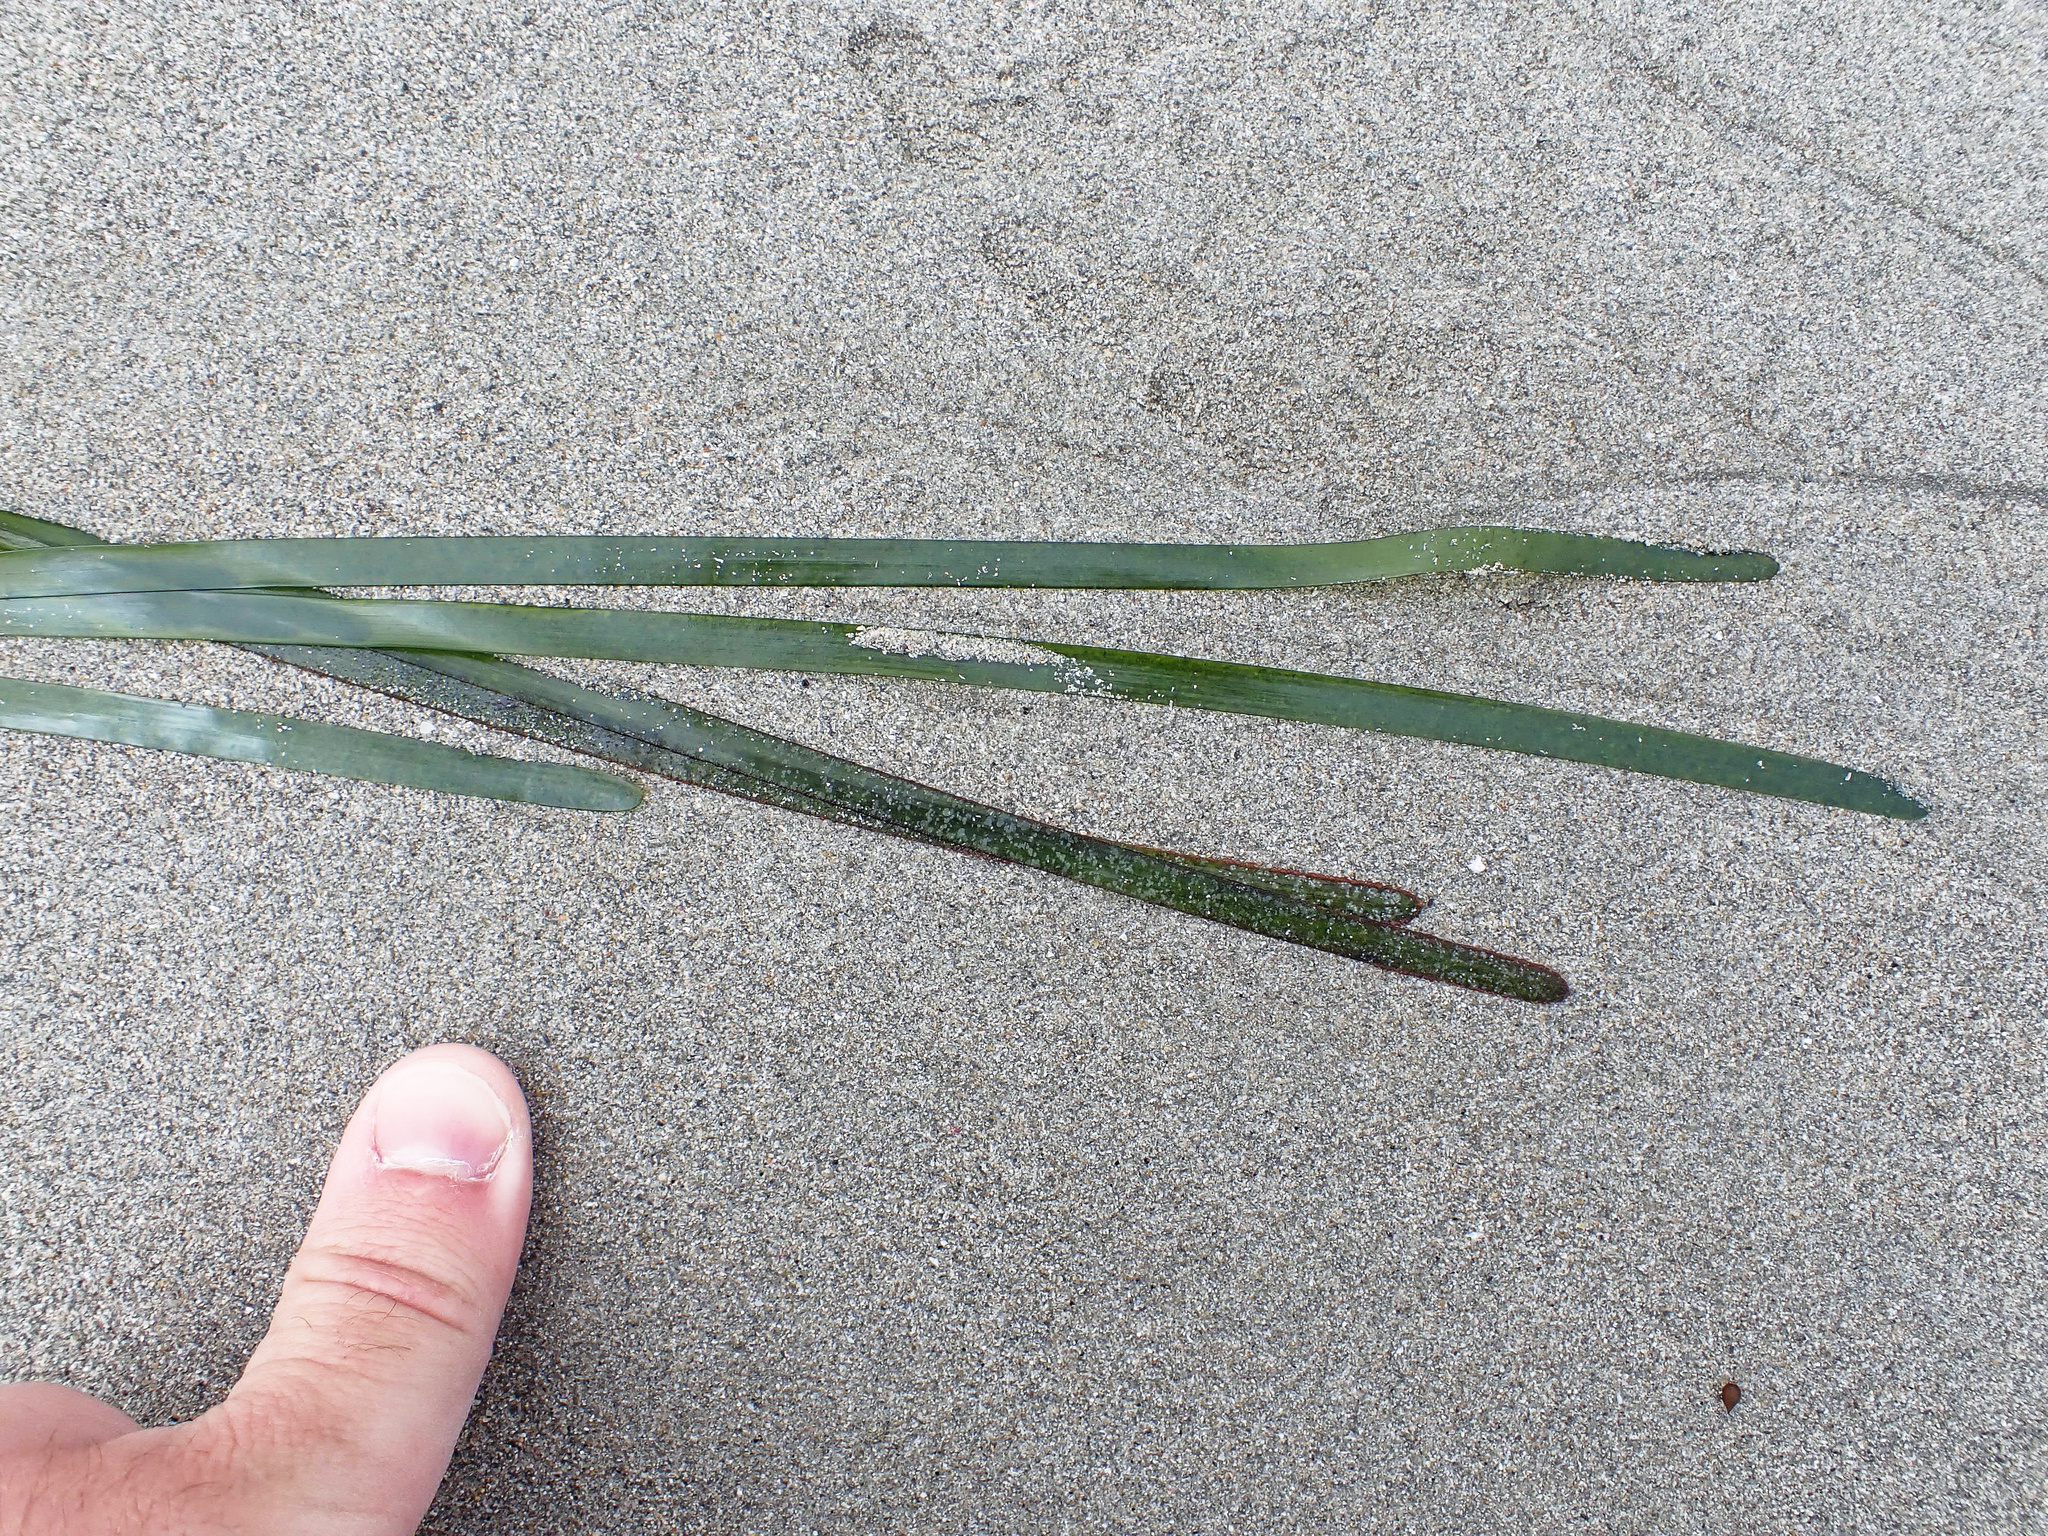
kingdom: Plantae
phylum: Tracheophyta
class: Liliopsida
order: Alismatales
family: Zosteraceae
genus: Zostera
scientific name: Zostera marina
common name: Eelgrass
